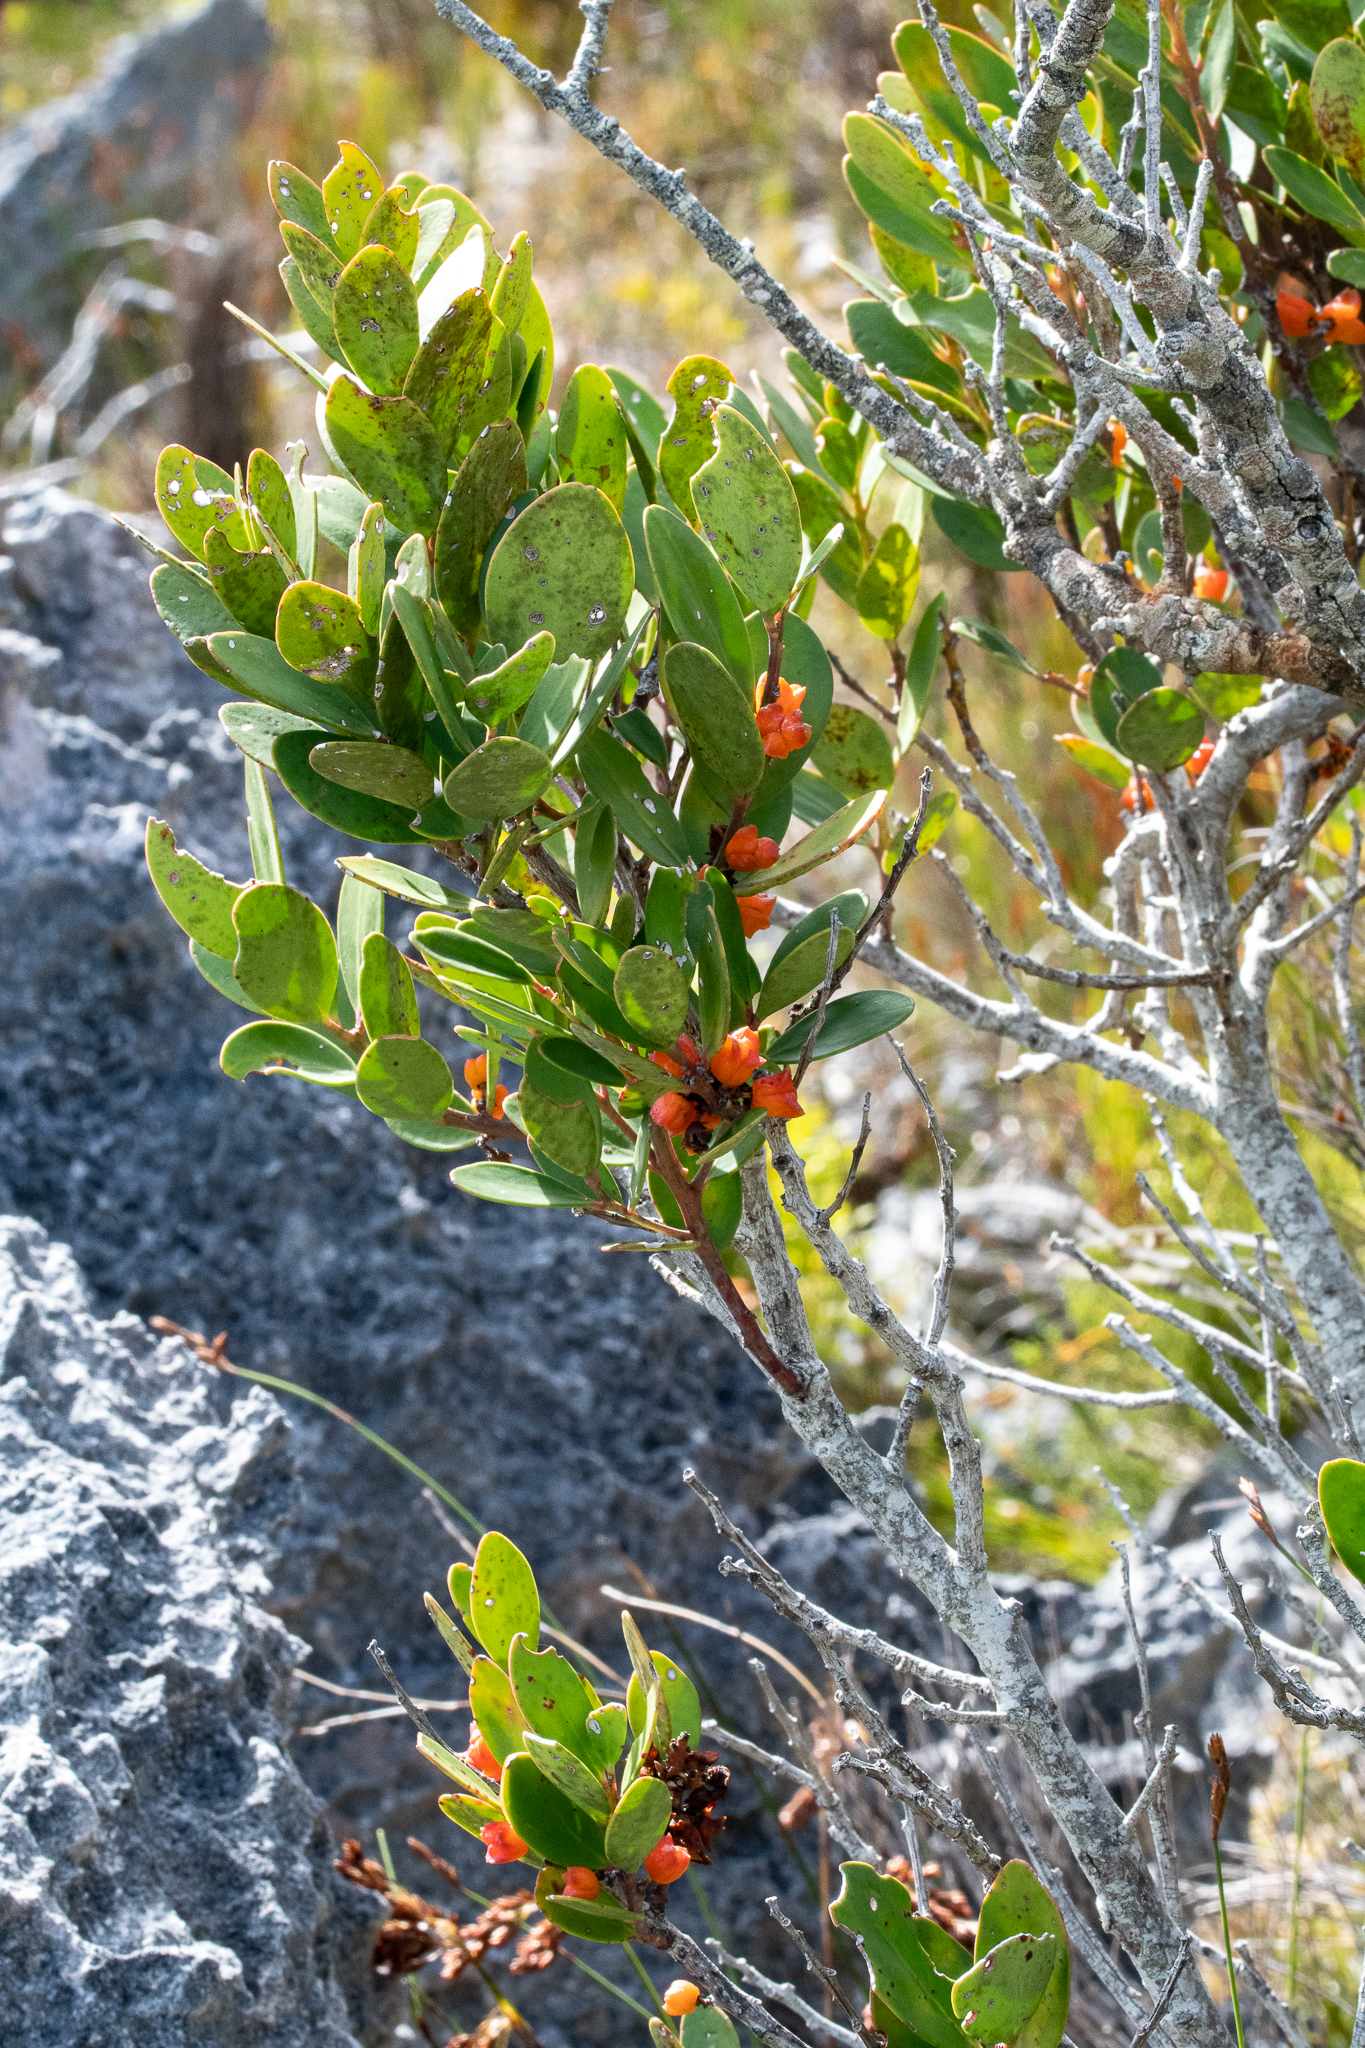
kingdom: Plantae
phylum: Tracheophyta
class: Magnoliopsida
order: Celastrales
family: Celastraceae
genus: Pterocelastrus
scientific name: Pterocelastrus tricuspidatus
